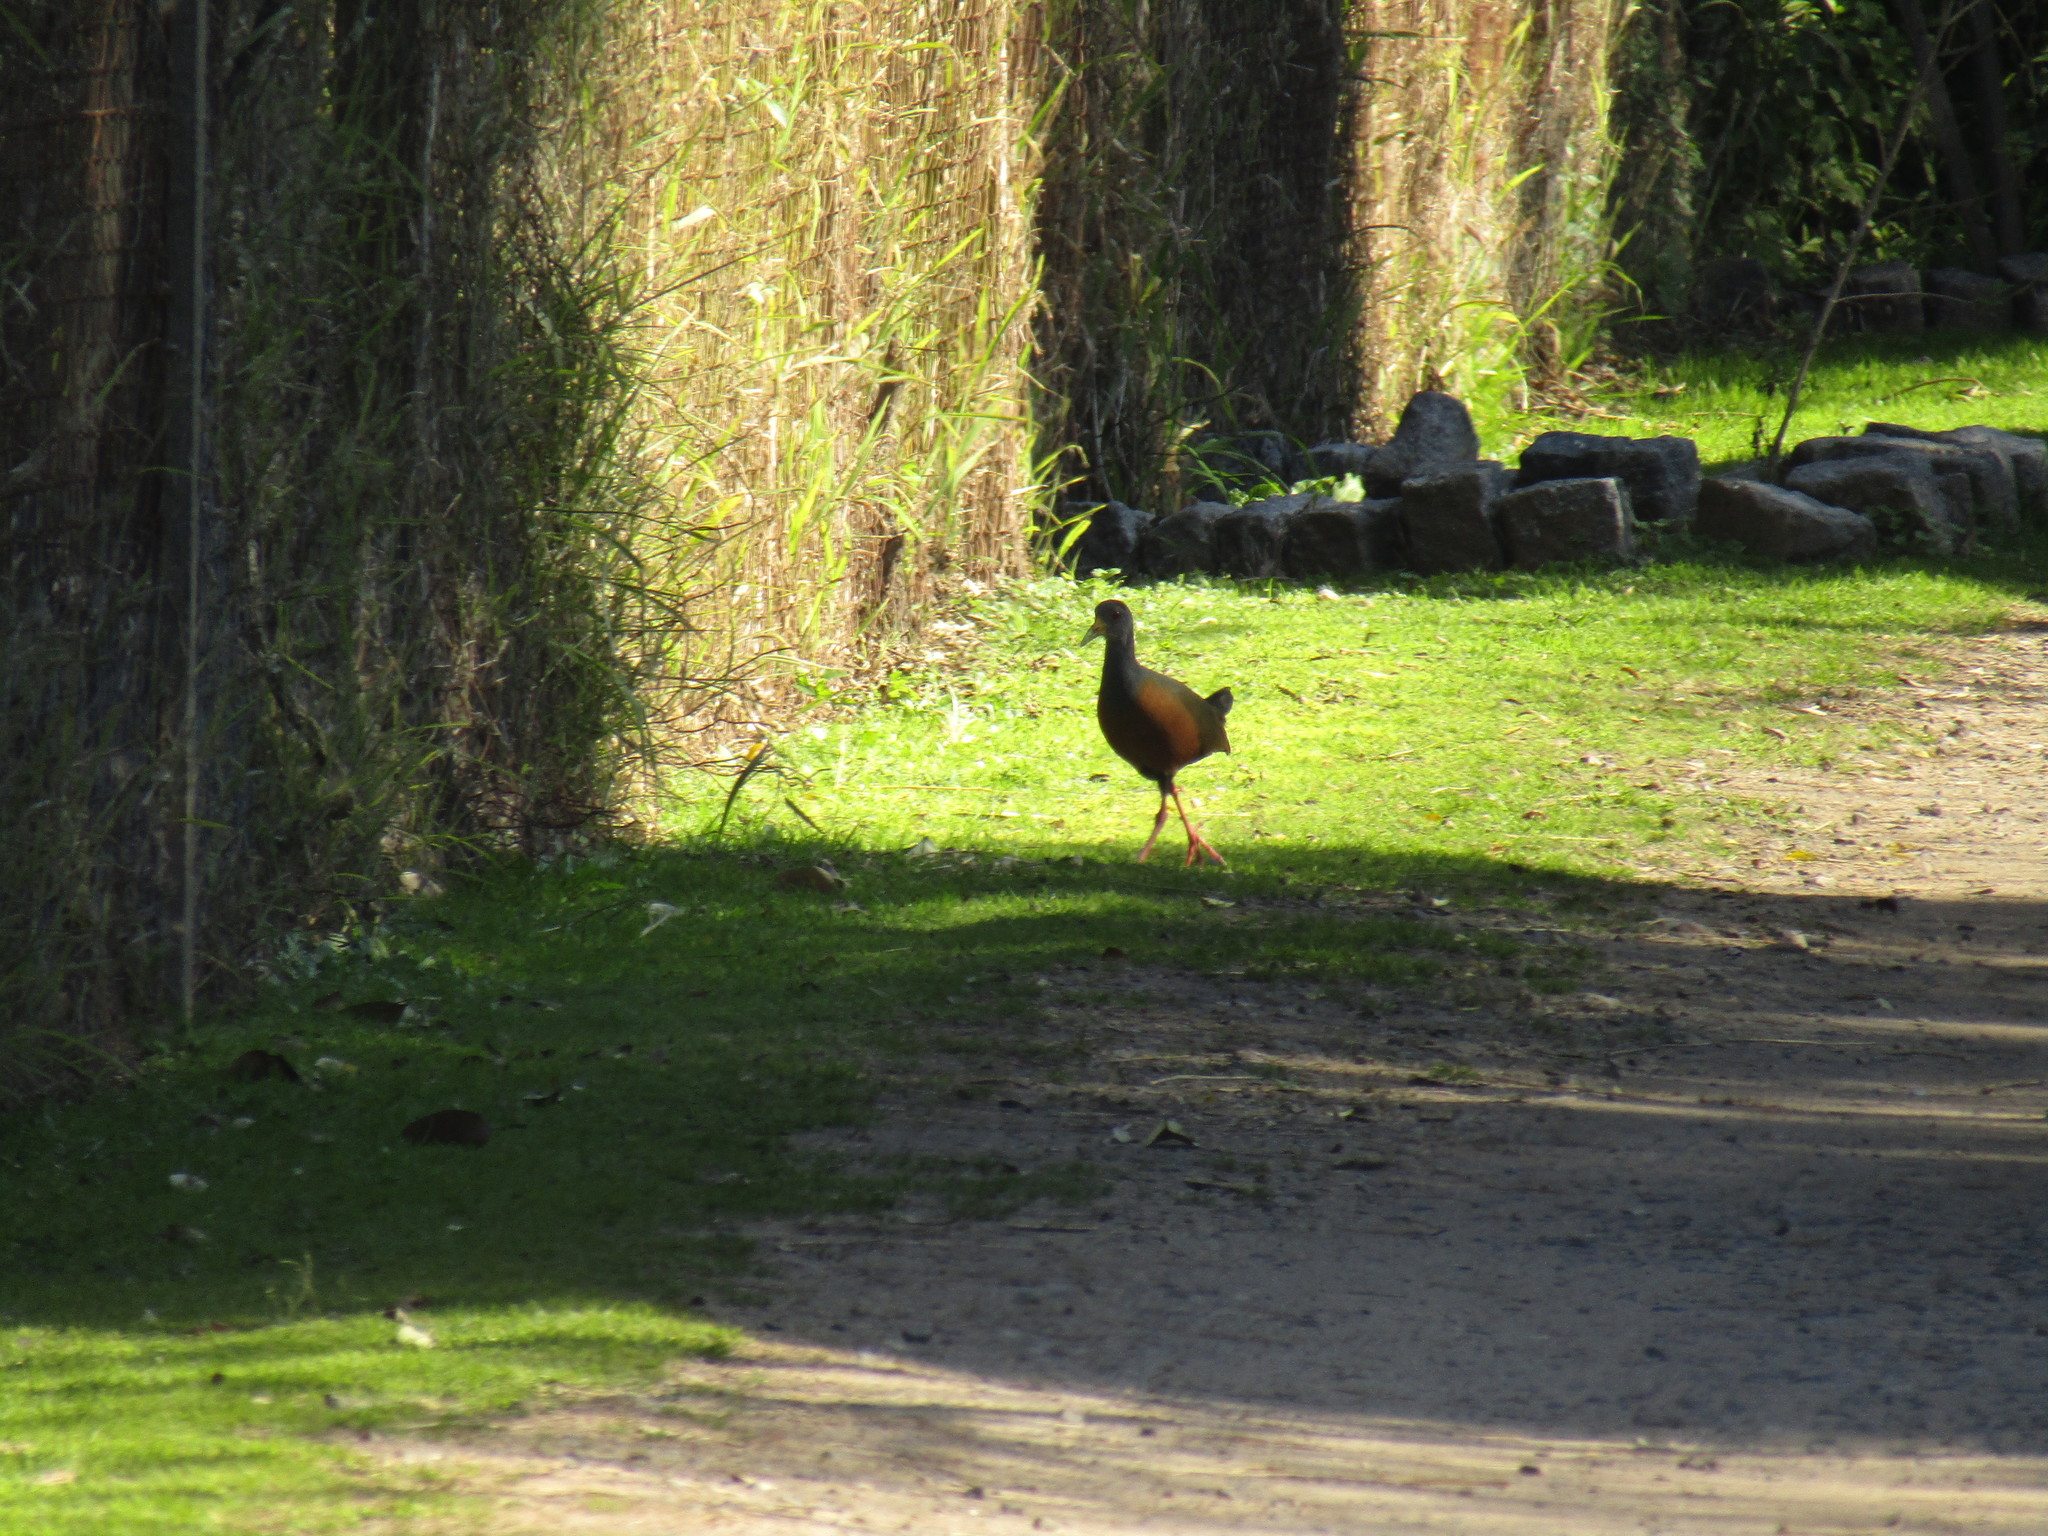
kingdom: Animalia
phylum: Chordata
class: Aves
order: Gruiformes
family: Rallidae
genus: Aramides
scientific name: Aramides cajanea
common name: Gray-necked wood-rail
